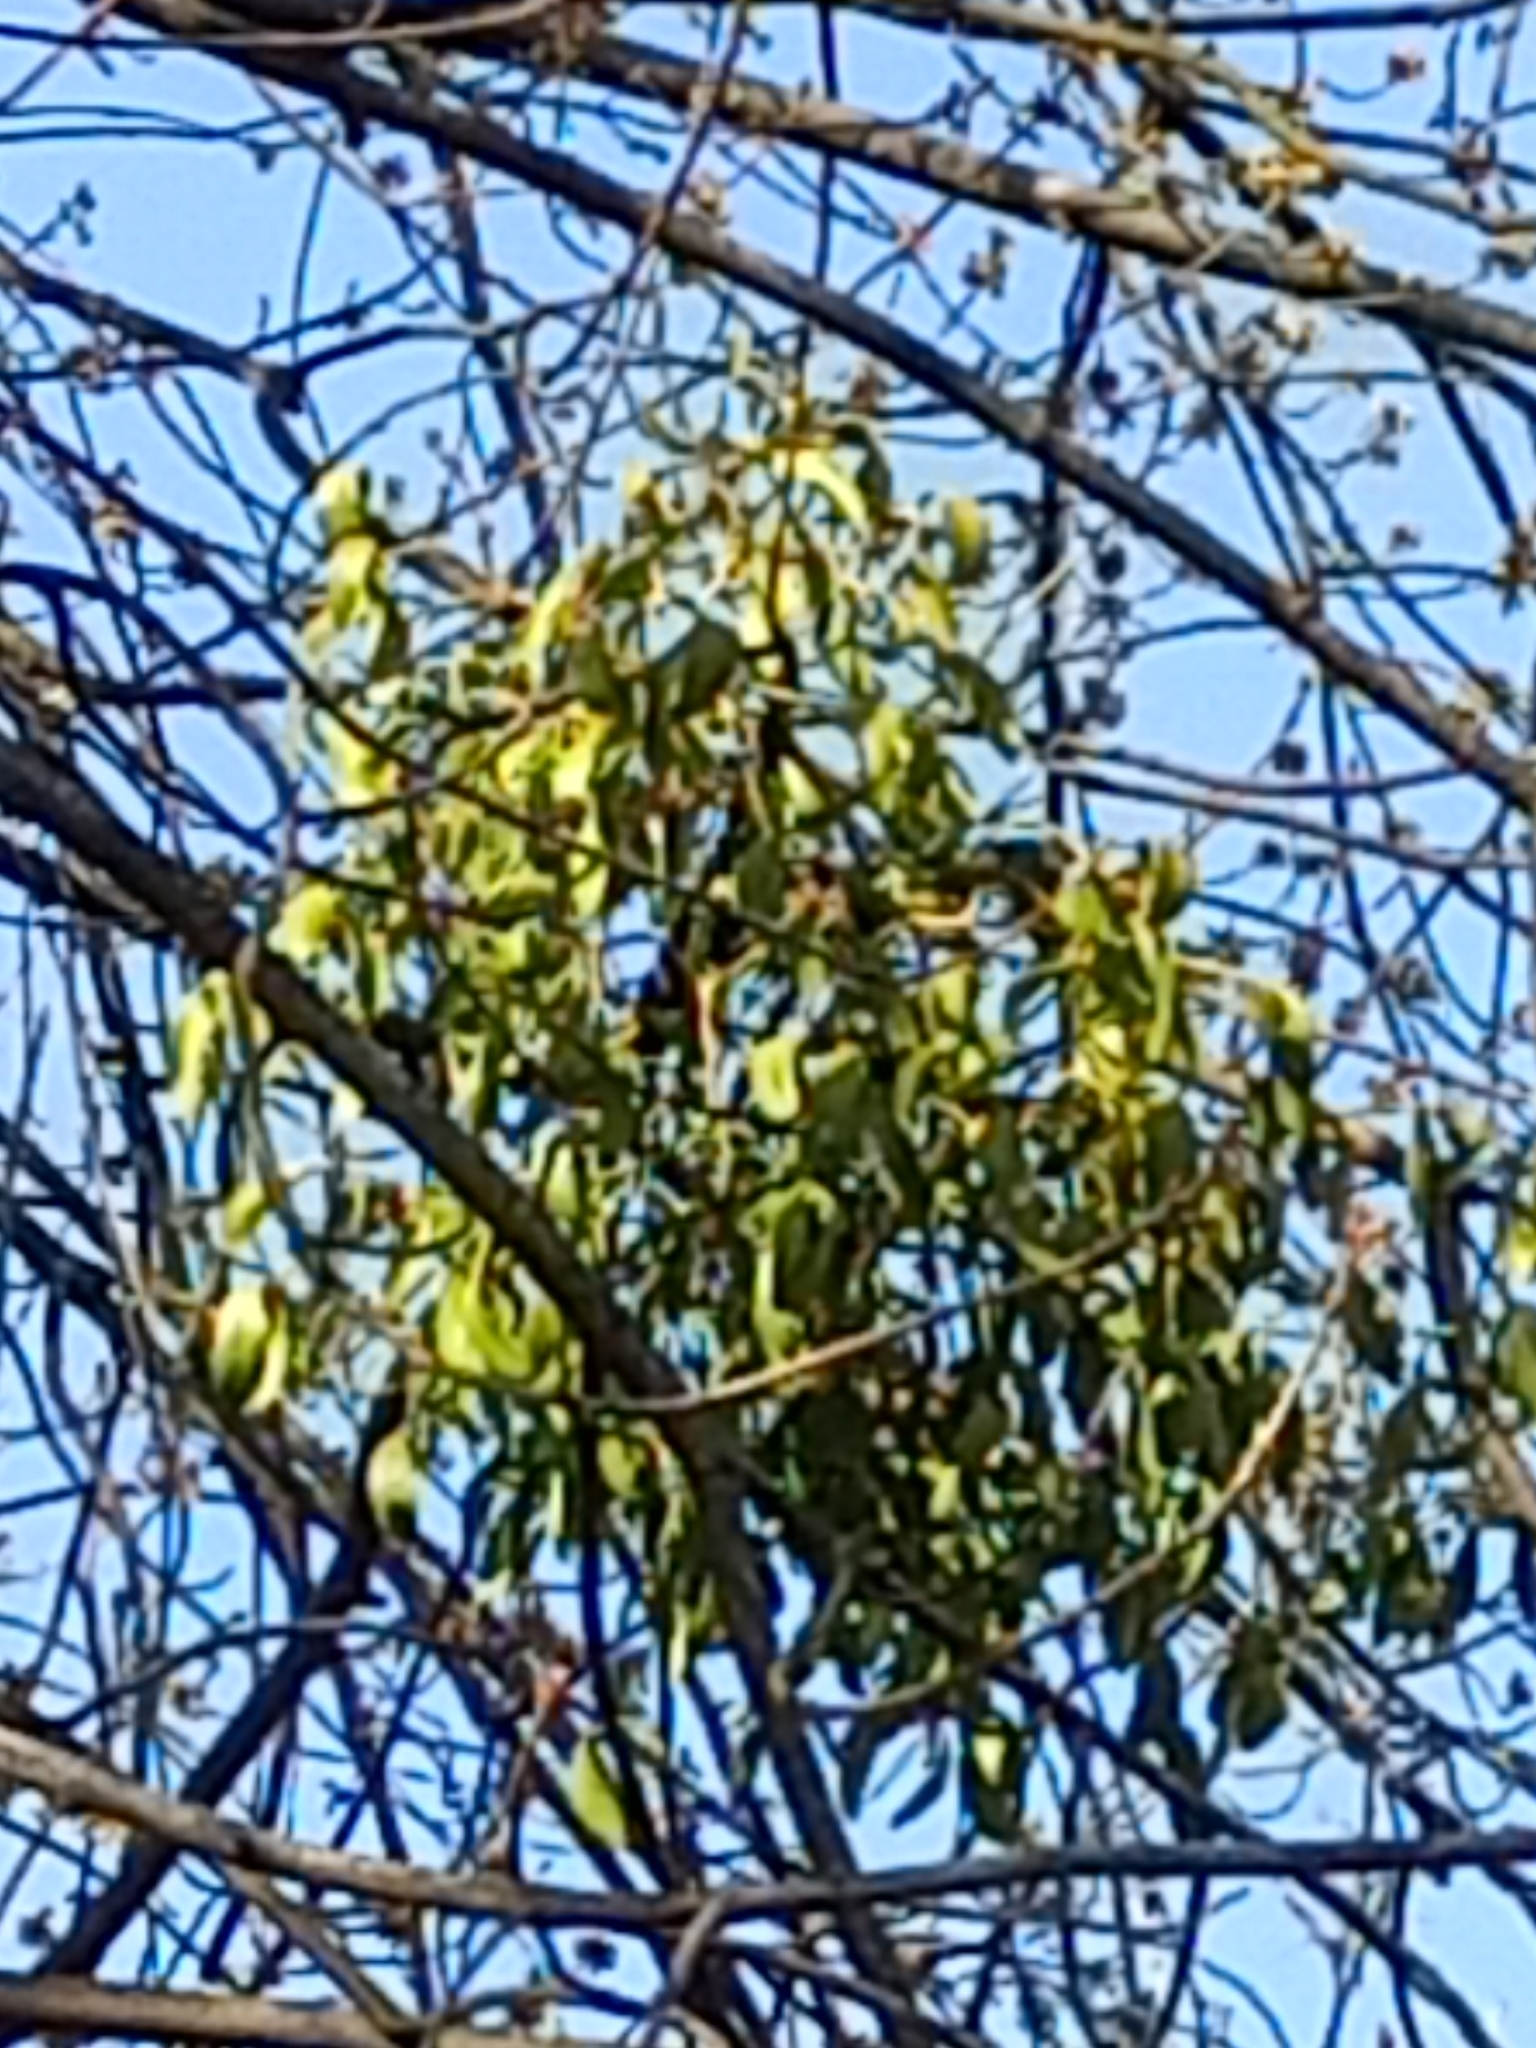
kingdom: Plantae
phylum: Tracheophyta
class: Magnoliopsida
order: Santalales
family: Viscaceae
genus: Viscum
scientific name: Viscum album
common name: Mistletoe
